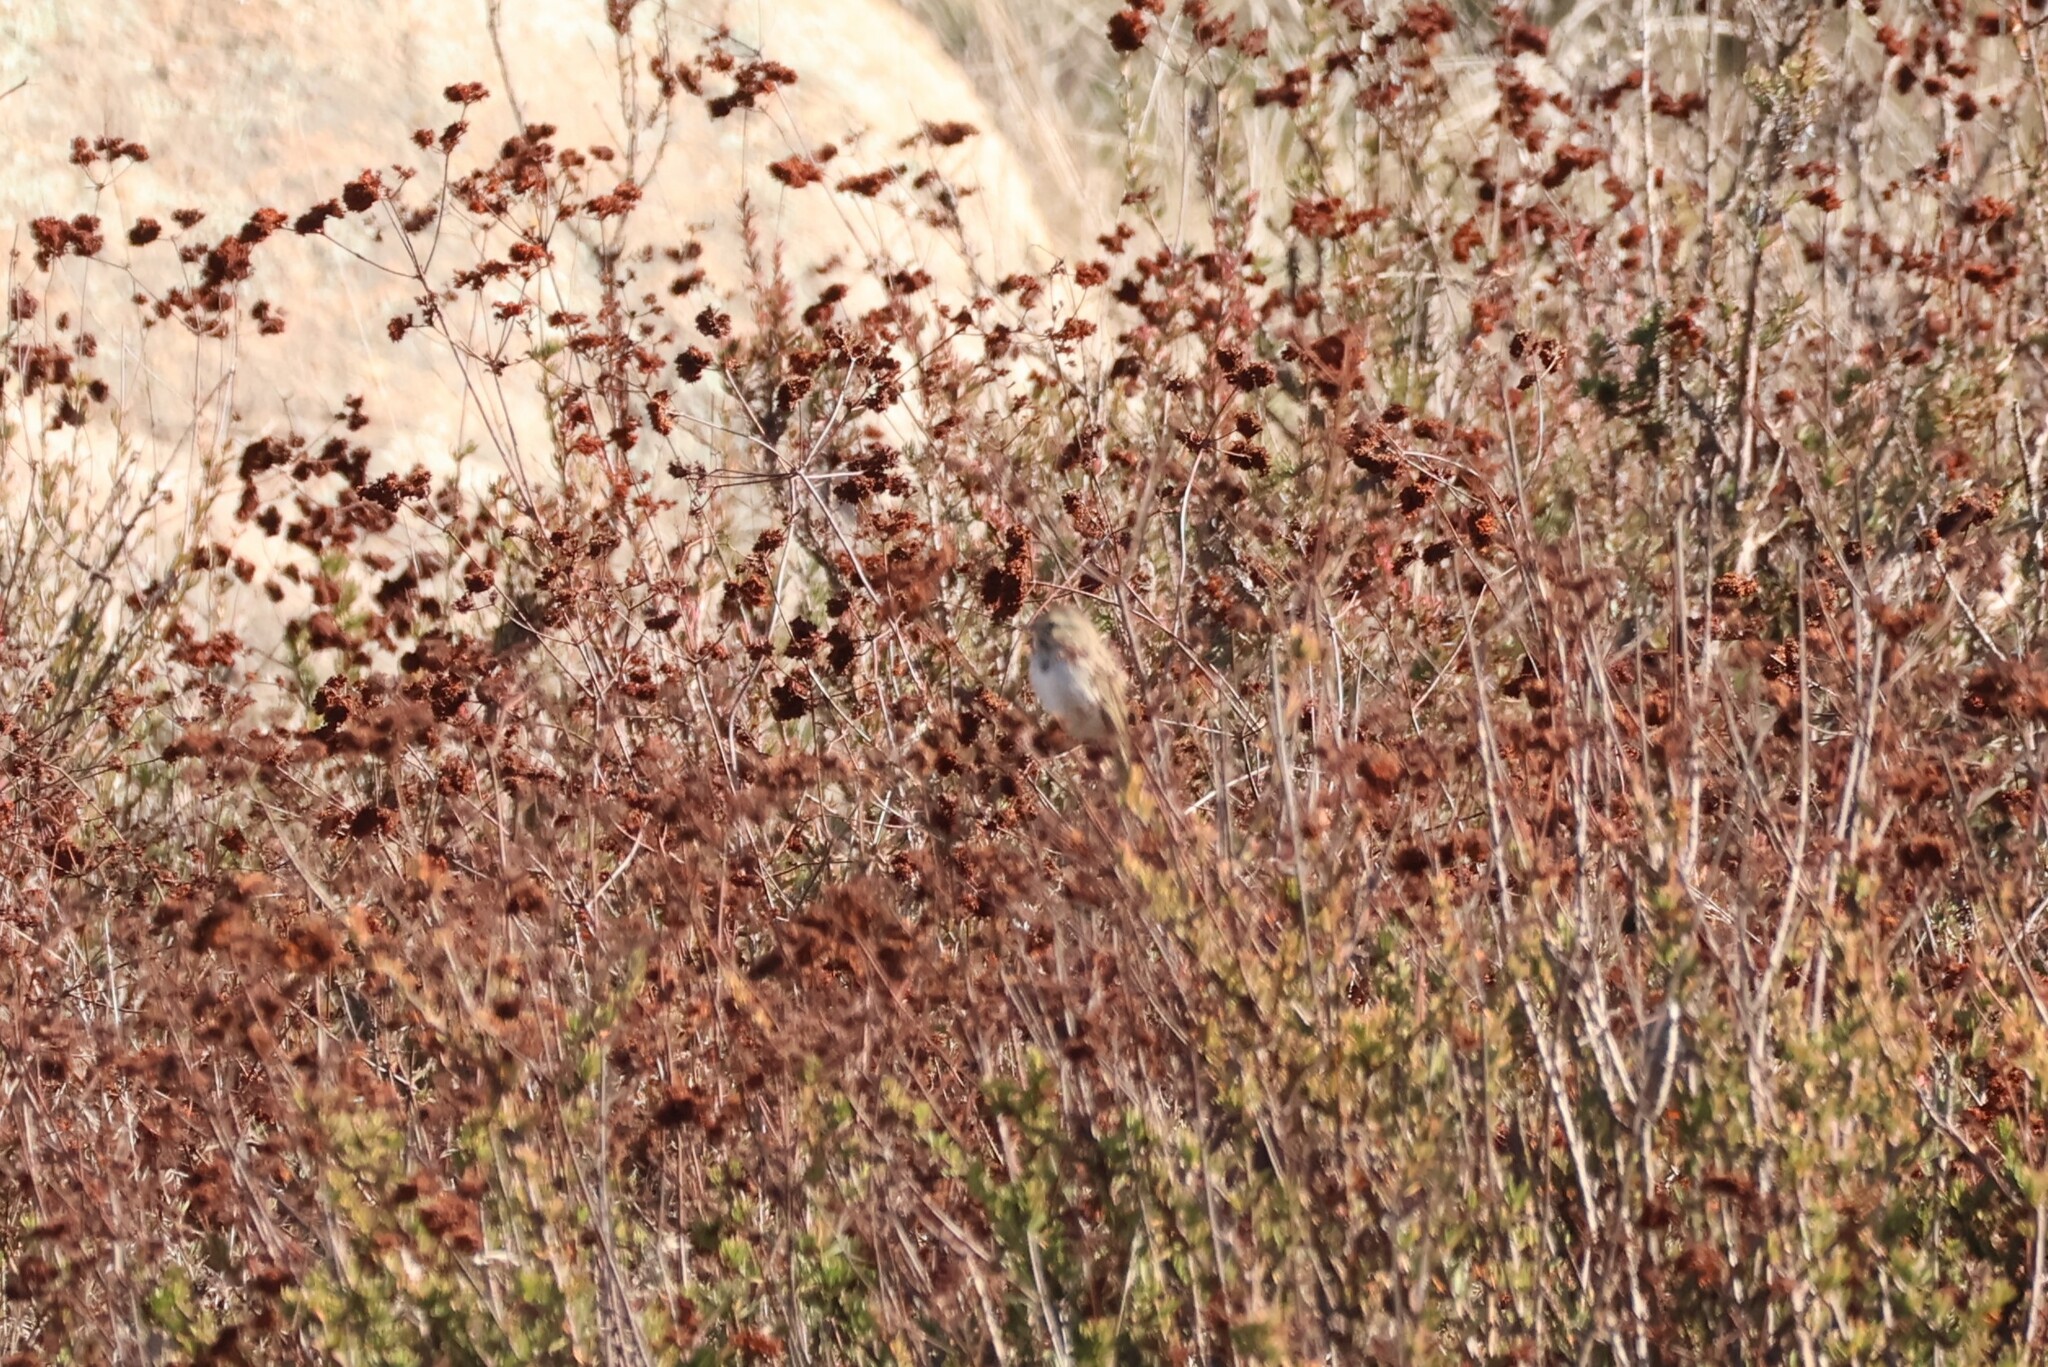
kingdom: Animalia
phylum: Chordata
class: Aves
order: Passeriformes
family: Passerellidae
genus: Passerculus
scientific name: Passerculus sandwichensis
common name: Savannah sparrow
